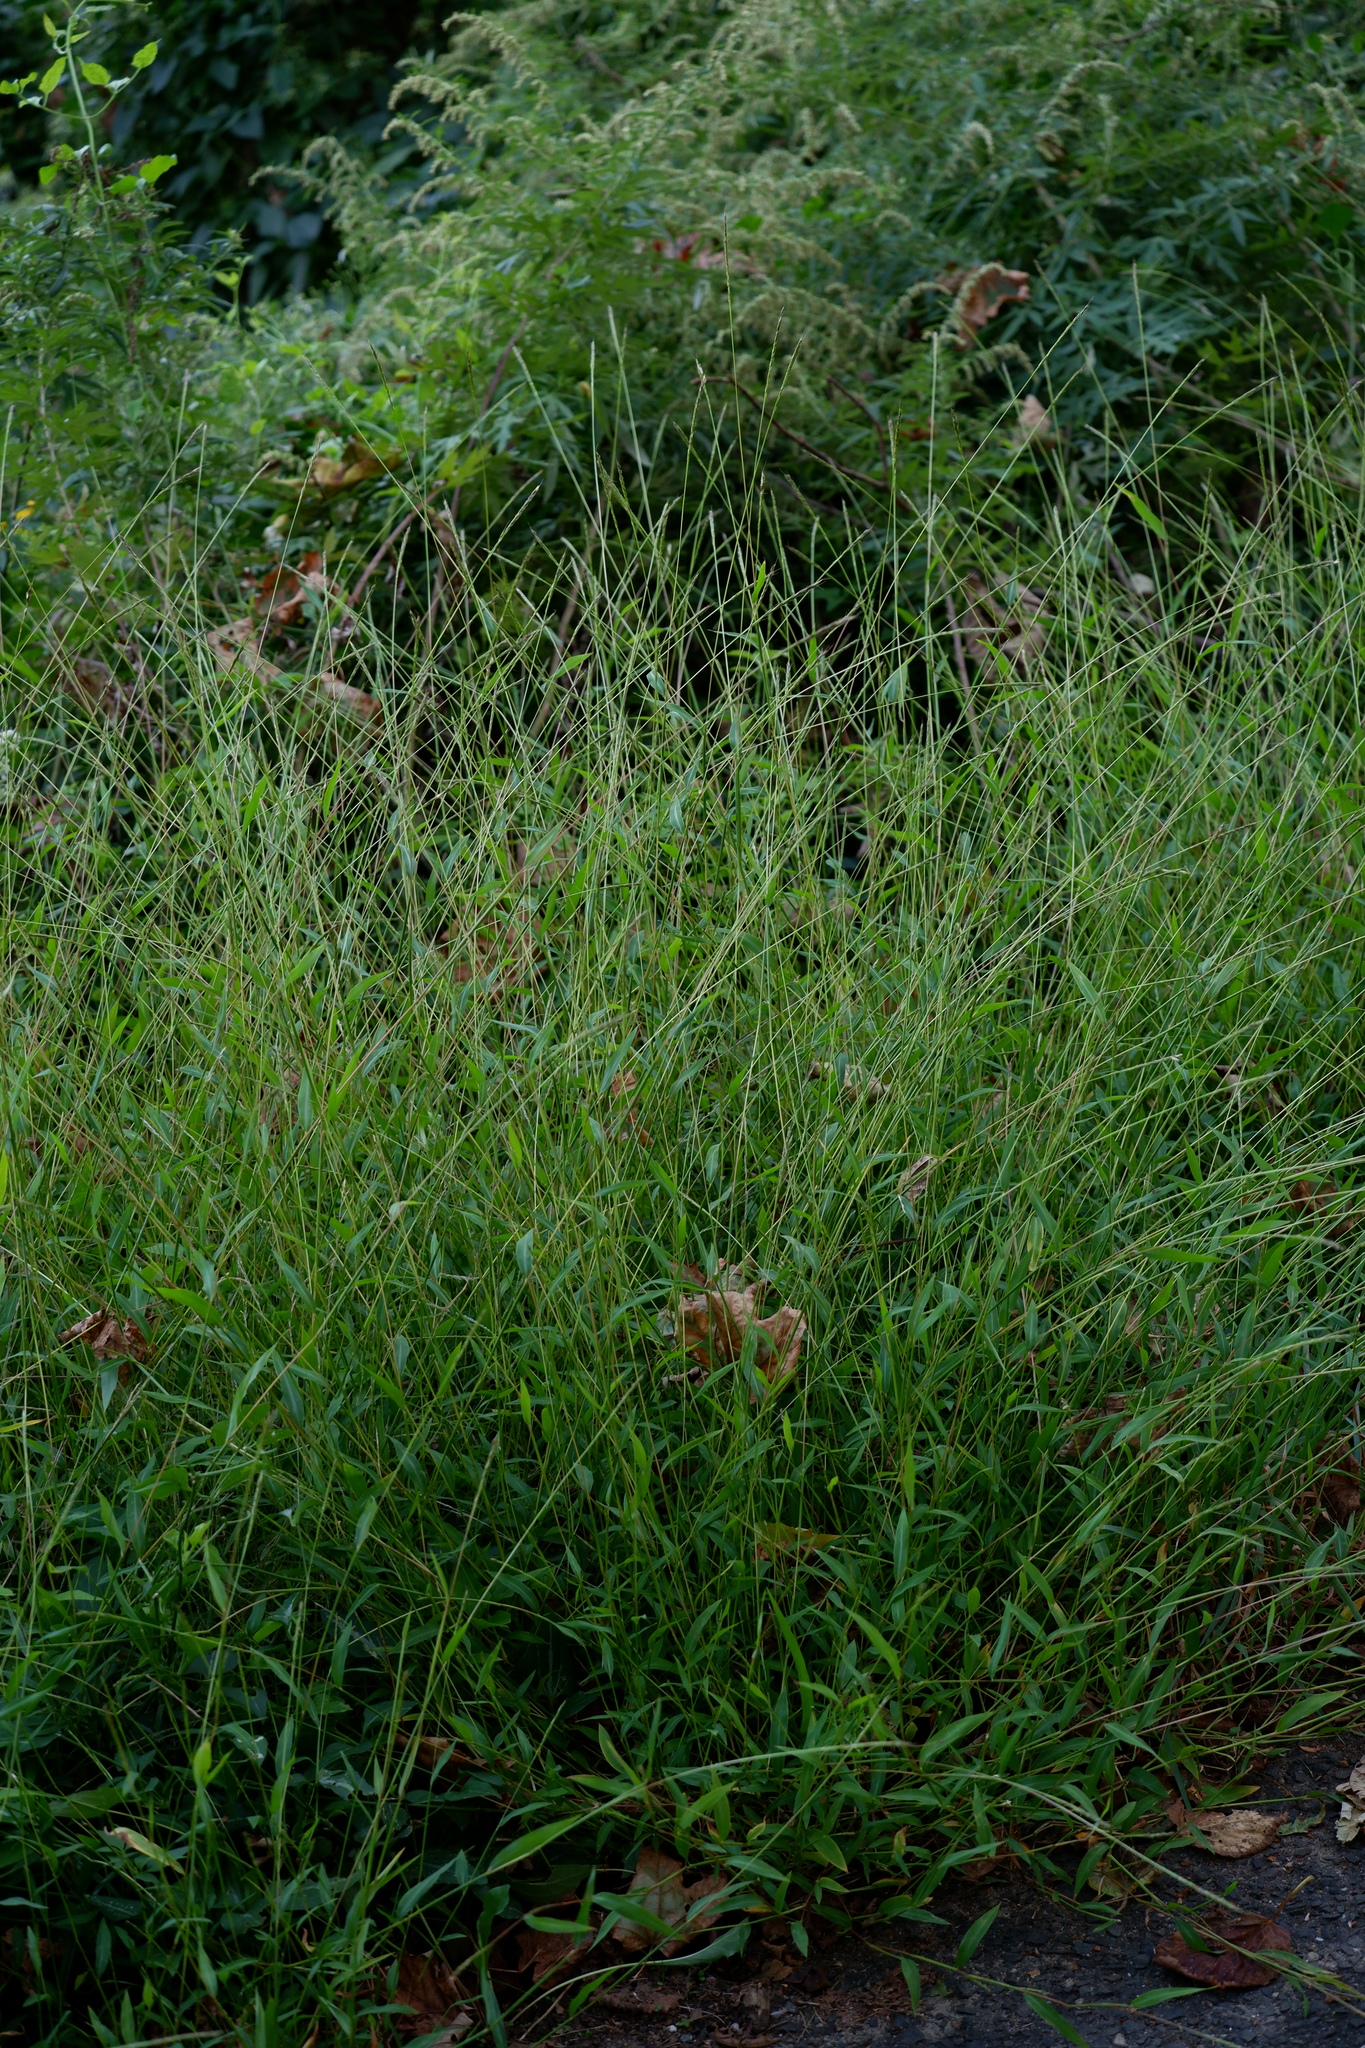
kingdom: Plantae
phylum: Tracheophyta
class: Liliopsida
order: Poales
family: Poaceae
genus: Microstegium
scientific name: Microstegium vimineum
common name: Japanese stiltgrass
